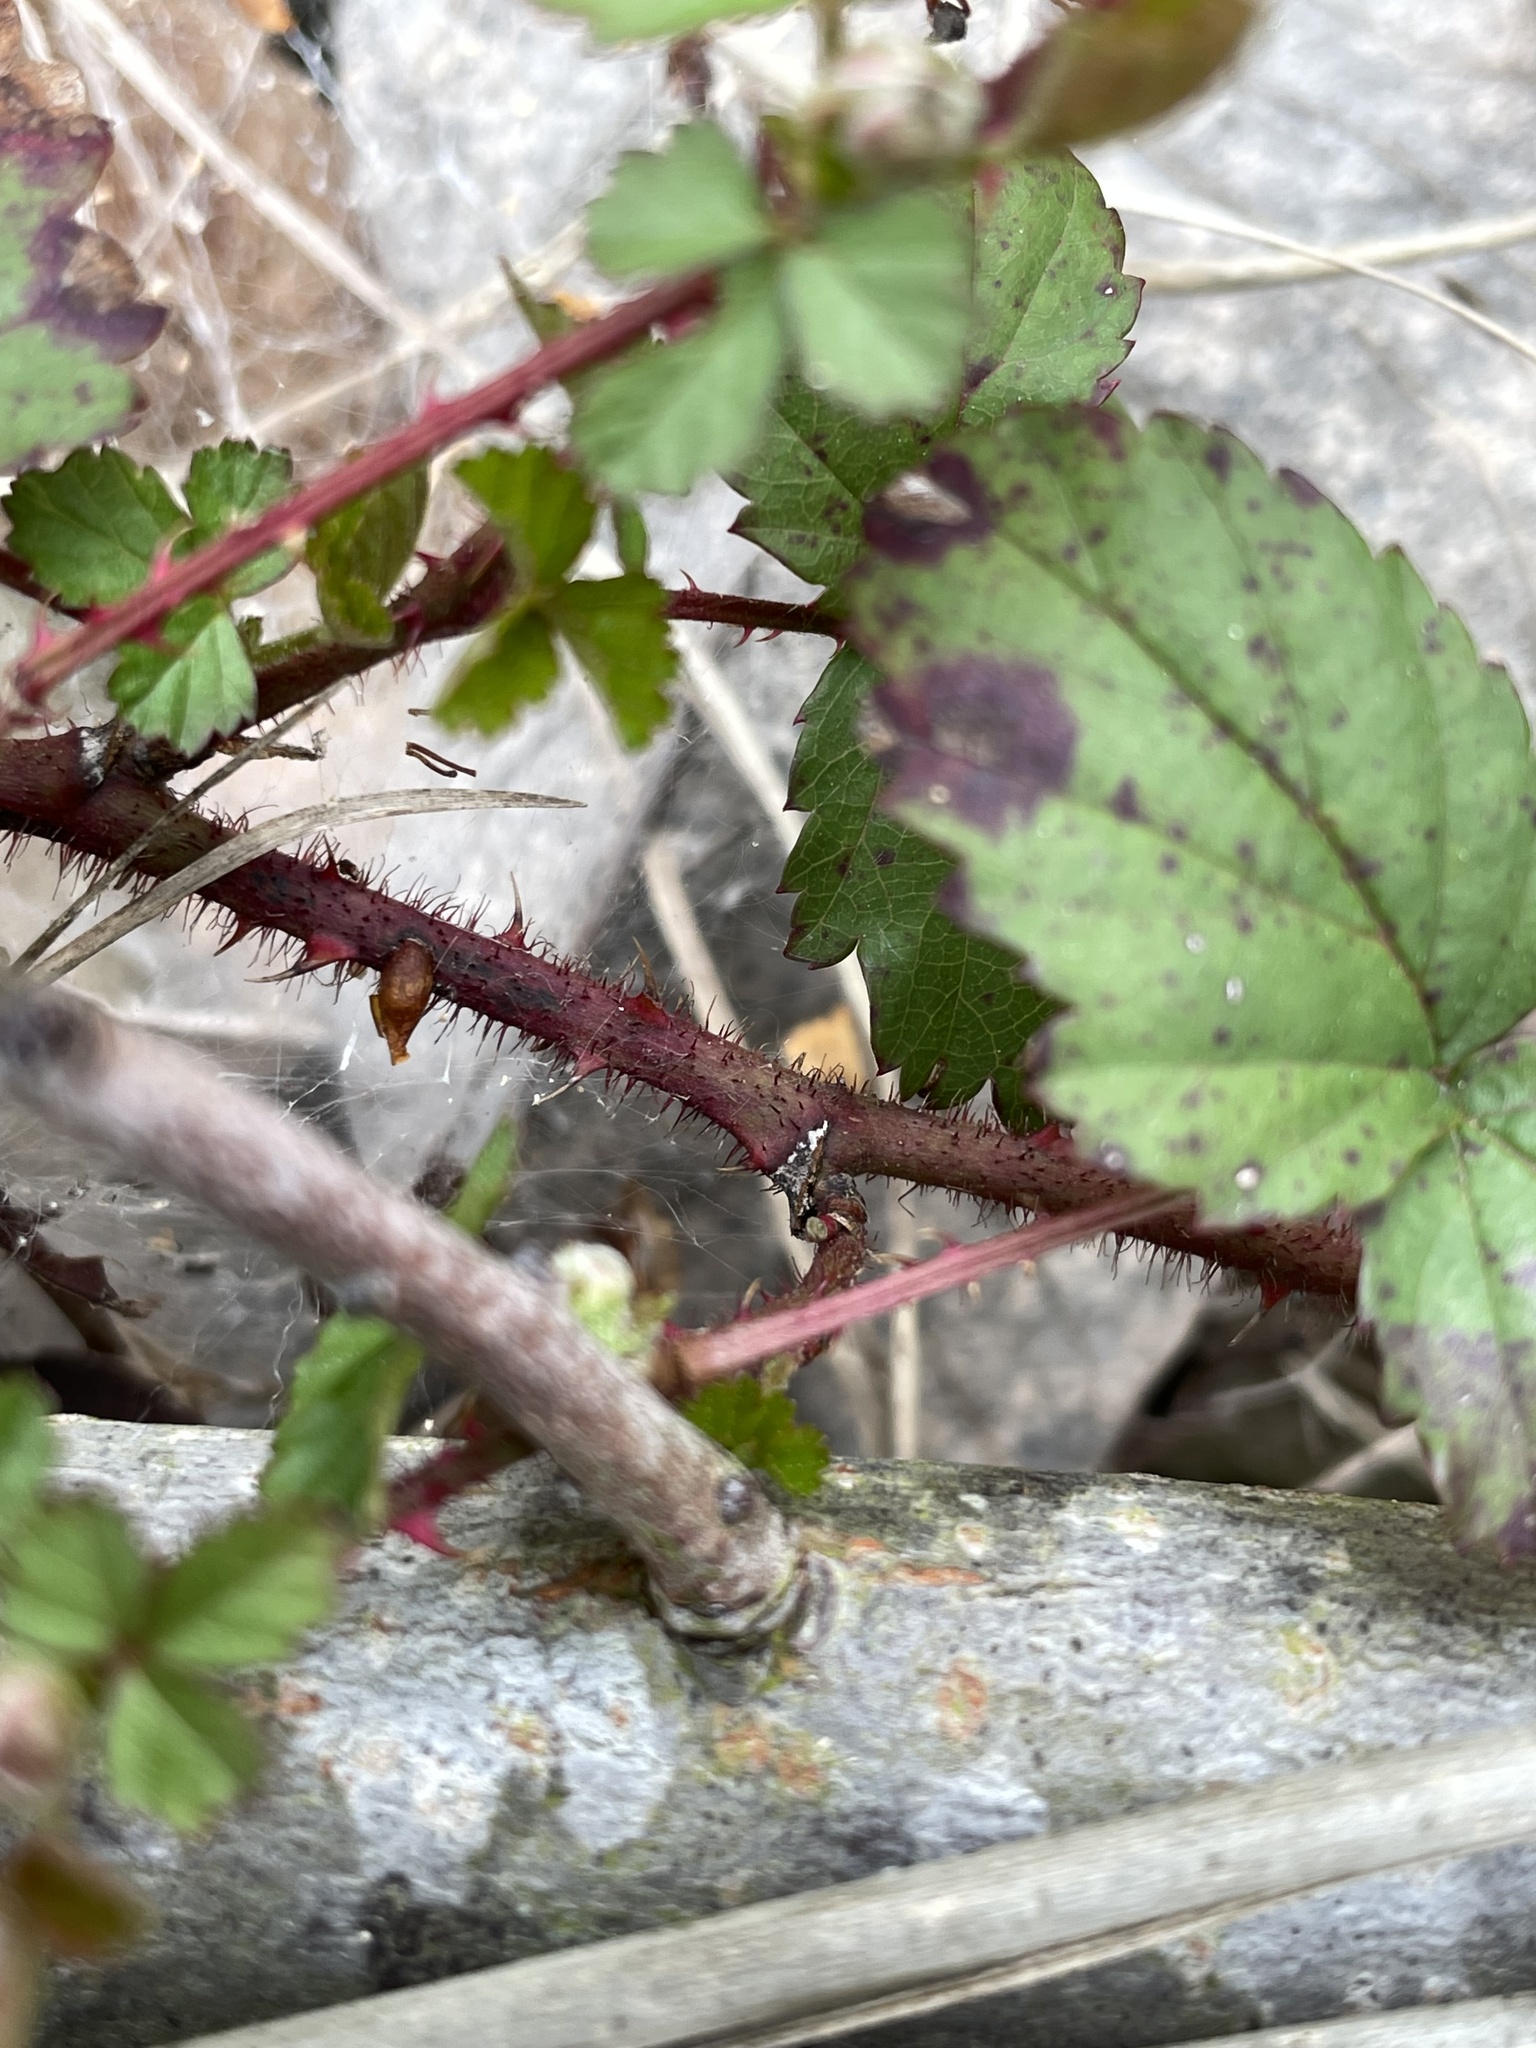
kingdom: Plantae
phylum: Tracheophyta
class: Magnoliopsida
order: Rosales
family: Rosaceae
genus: Rubus
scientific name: Rubus trivialis
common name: Southern dewberry
